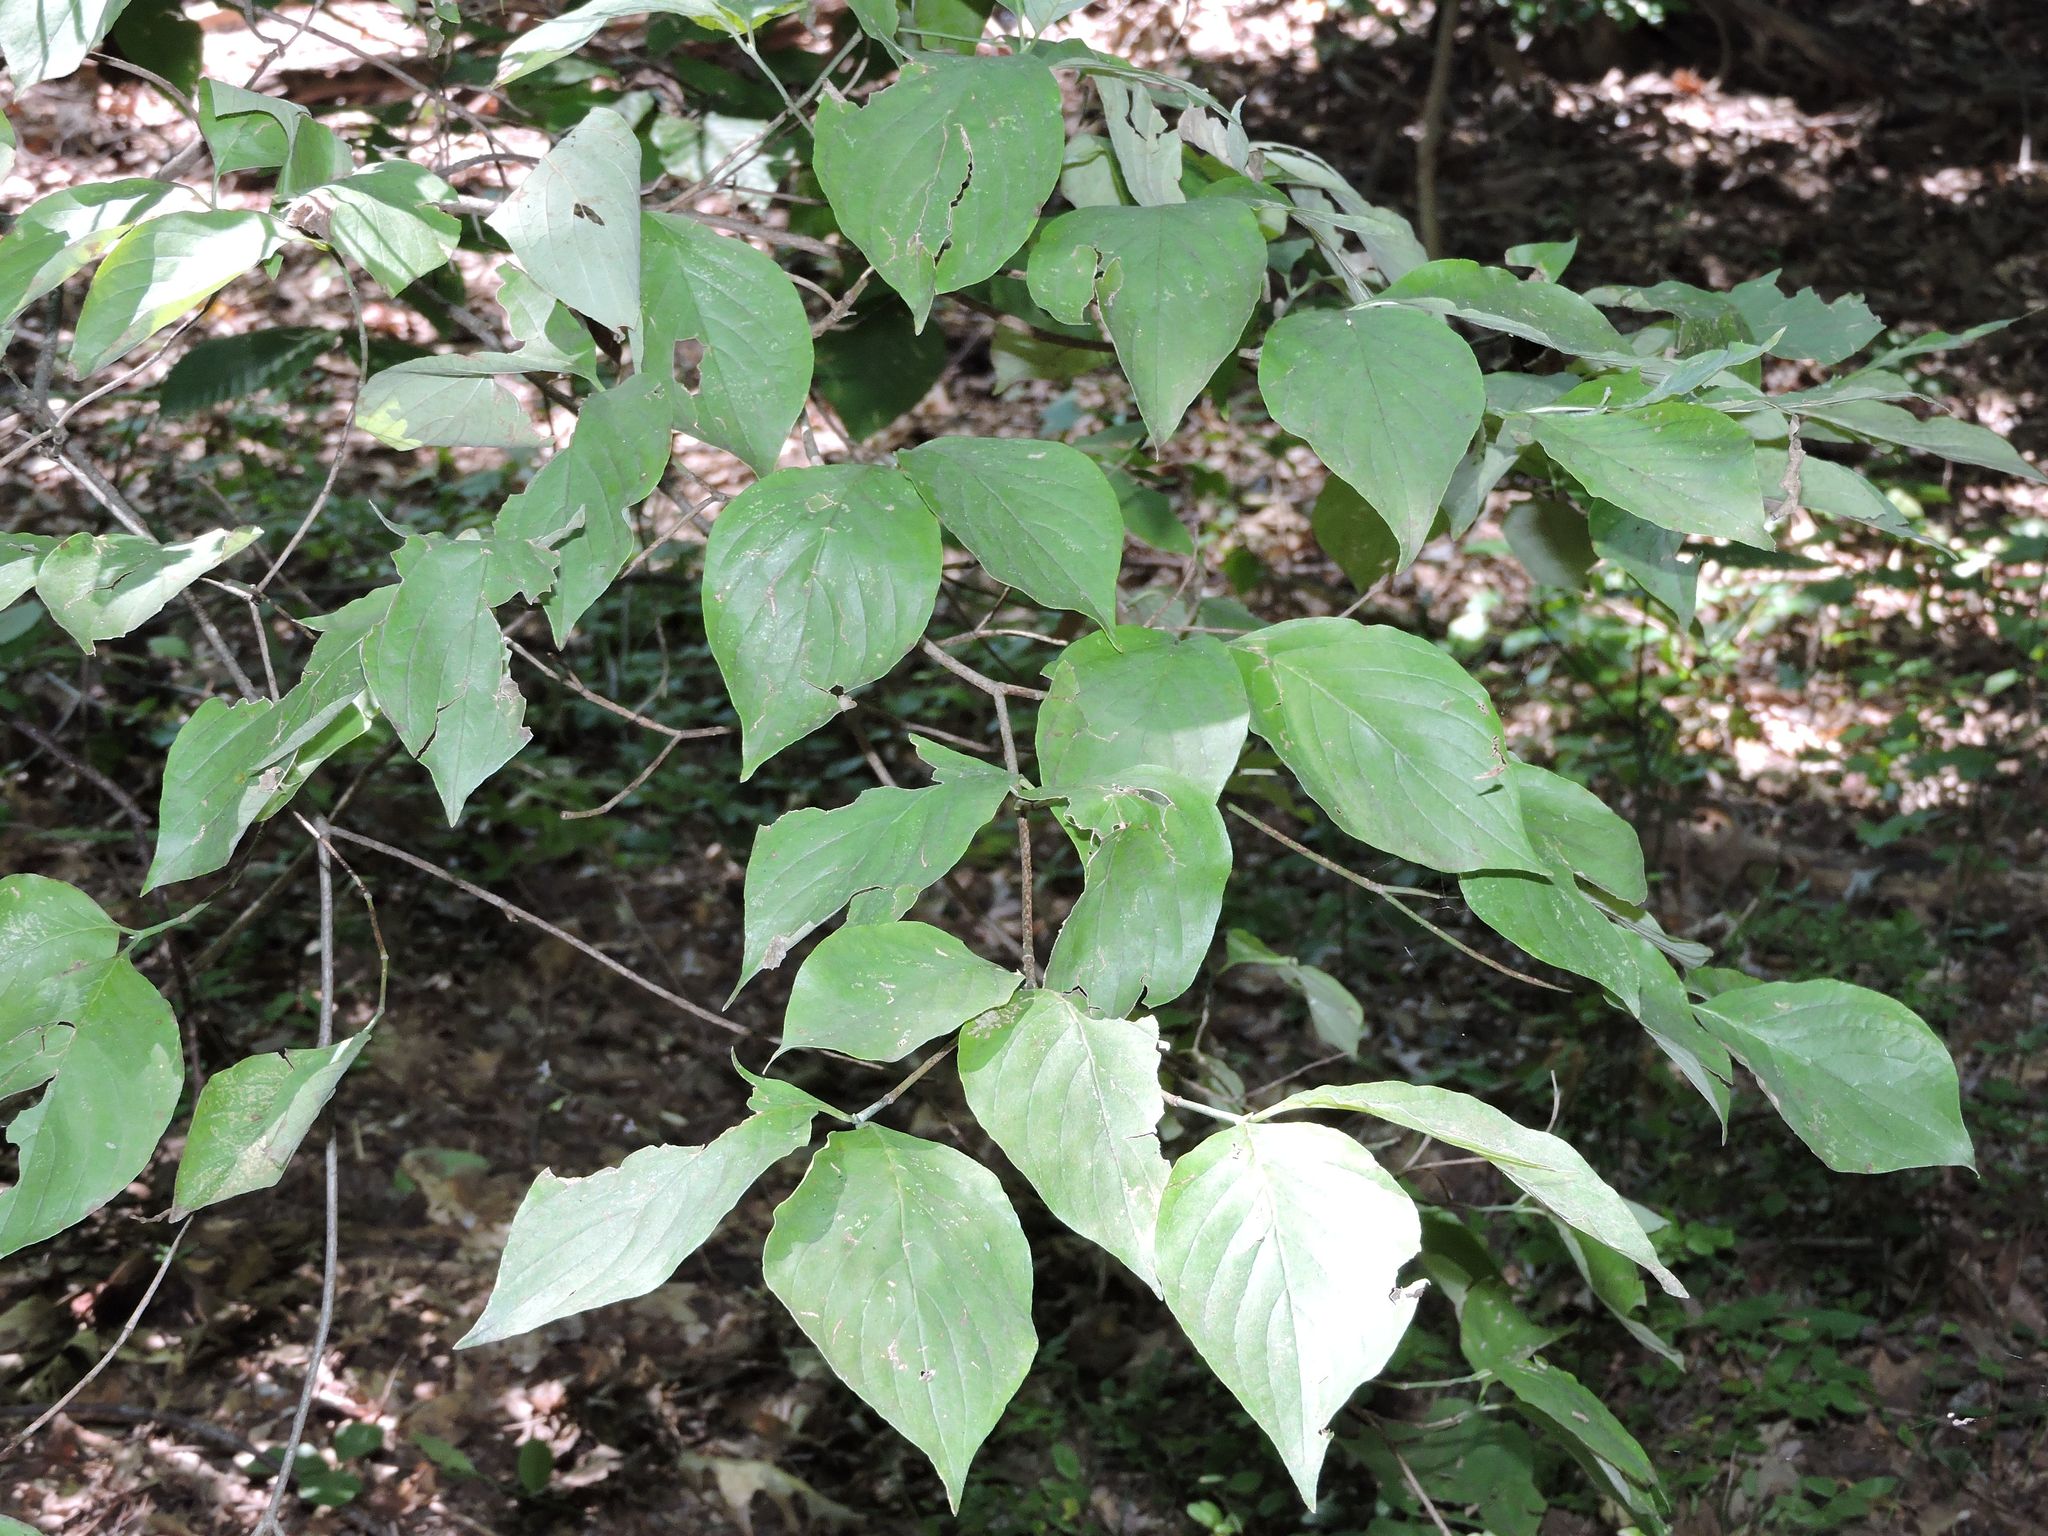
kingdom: Plantae
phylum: Tracheophyta
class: Magnoliopsida
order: Cornales
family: Cornaceae
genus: Cornus
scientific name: Cornus florida
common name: Flowering dogwood
